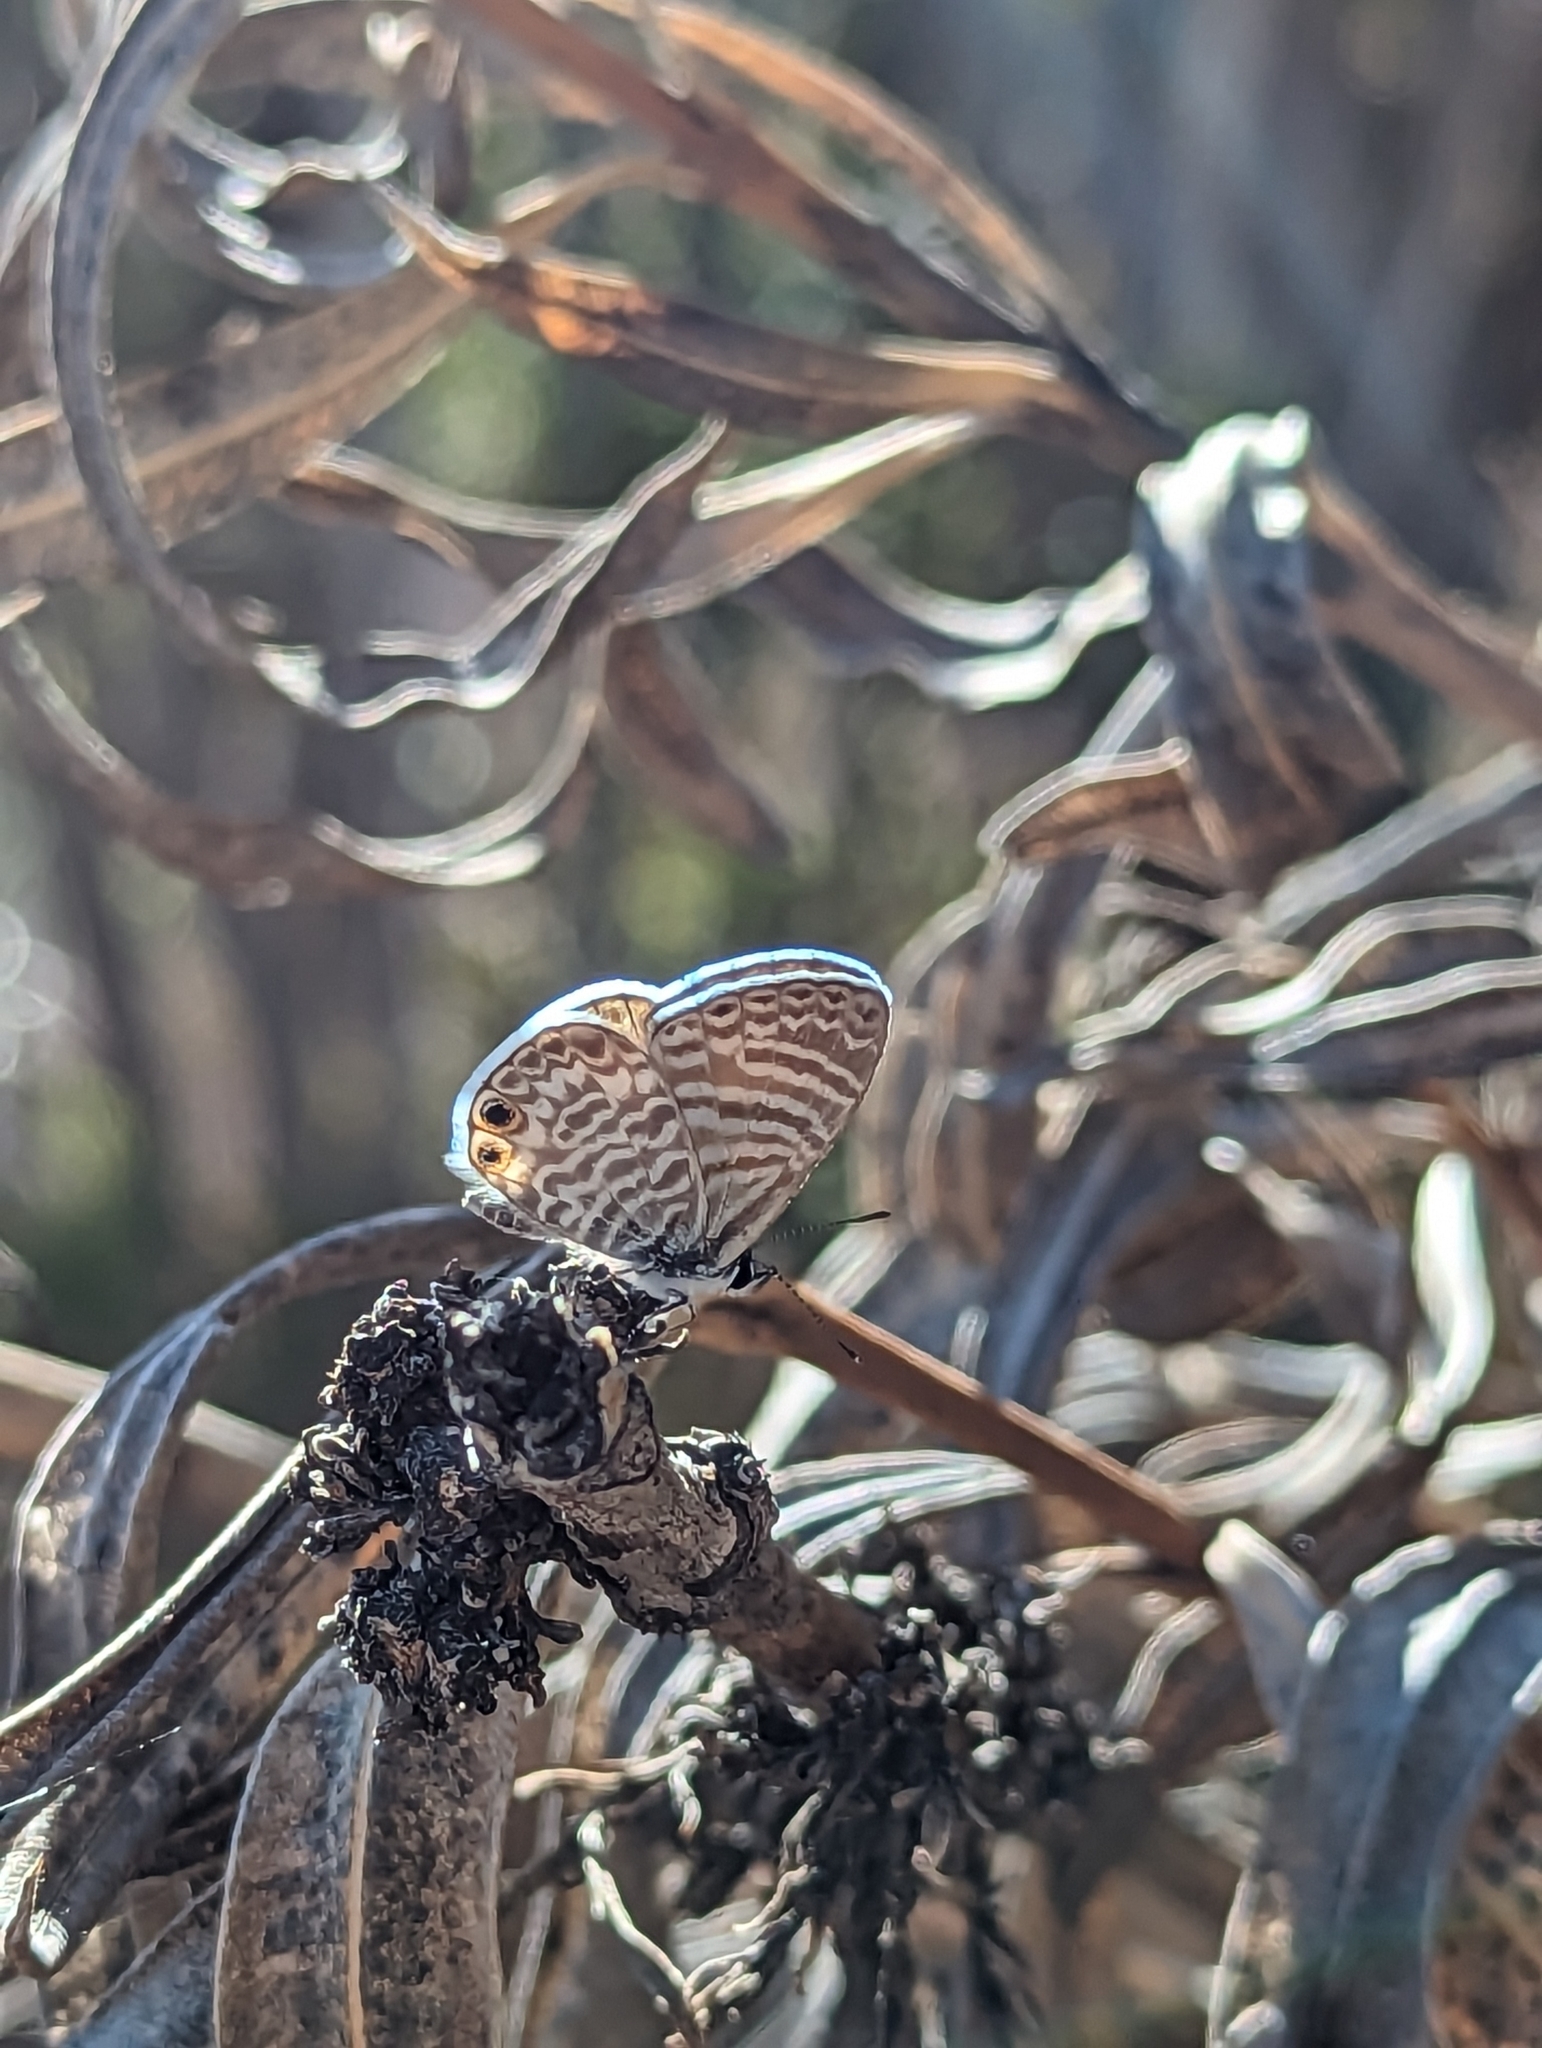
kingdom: Animalia
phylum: Arthropoda
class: Insecta
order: Lepidoptera
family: Lycaenidae
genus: Leptotes
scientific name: Leptotes marina
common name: Marine blue
